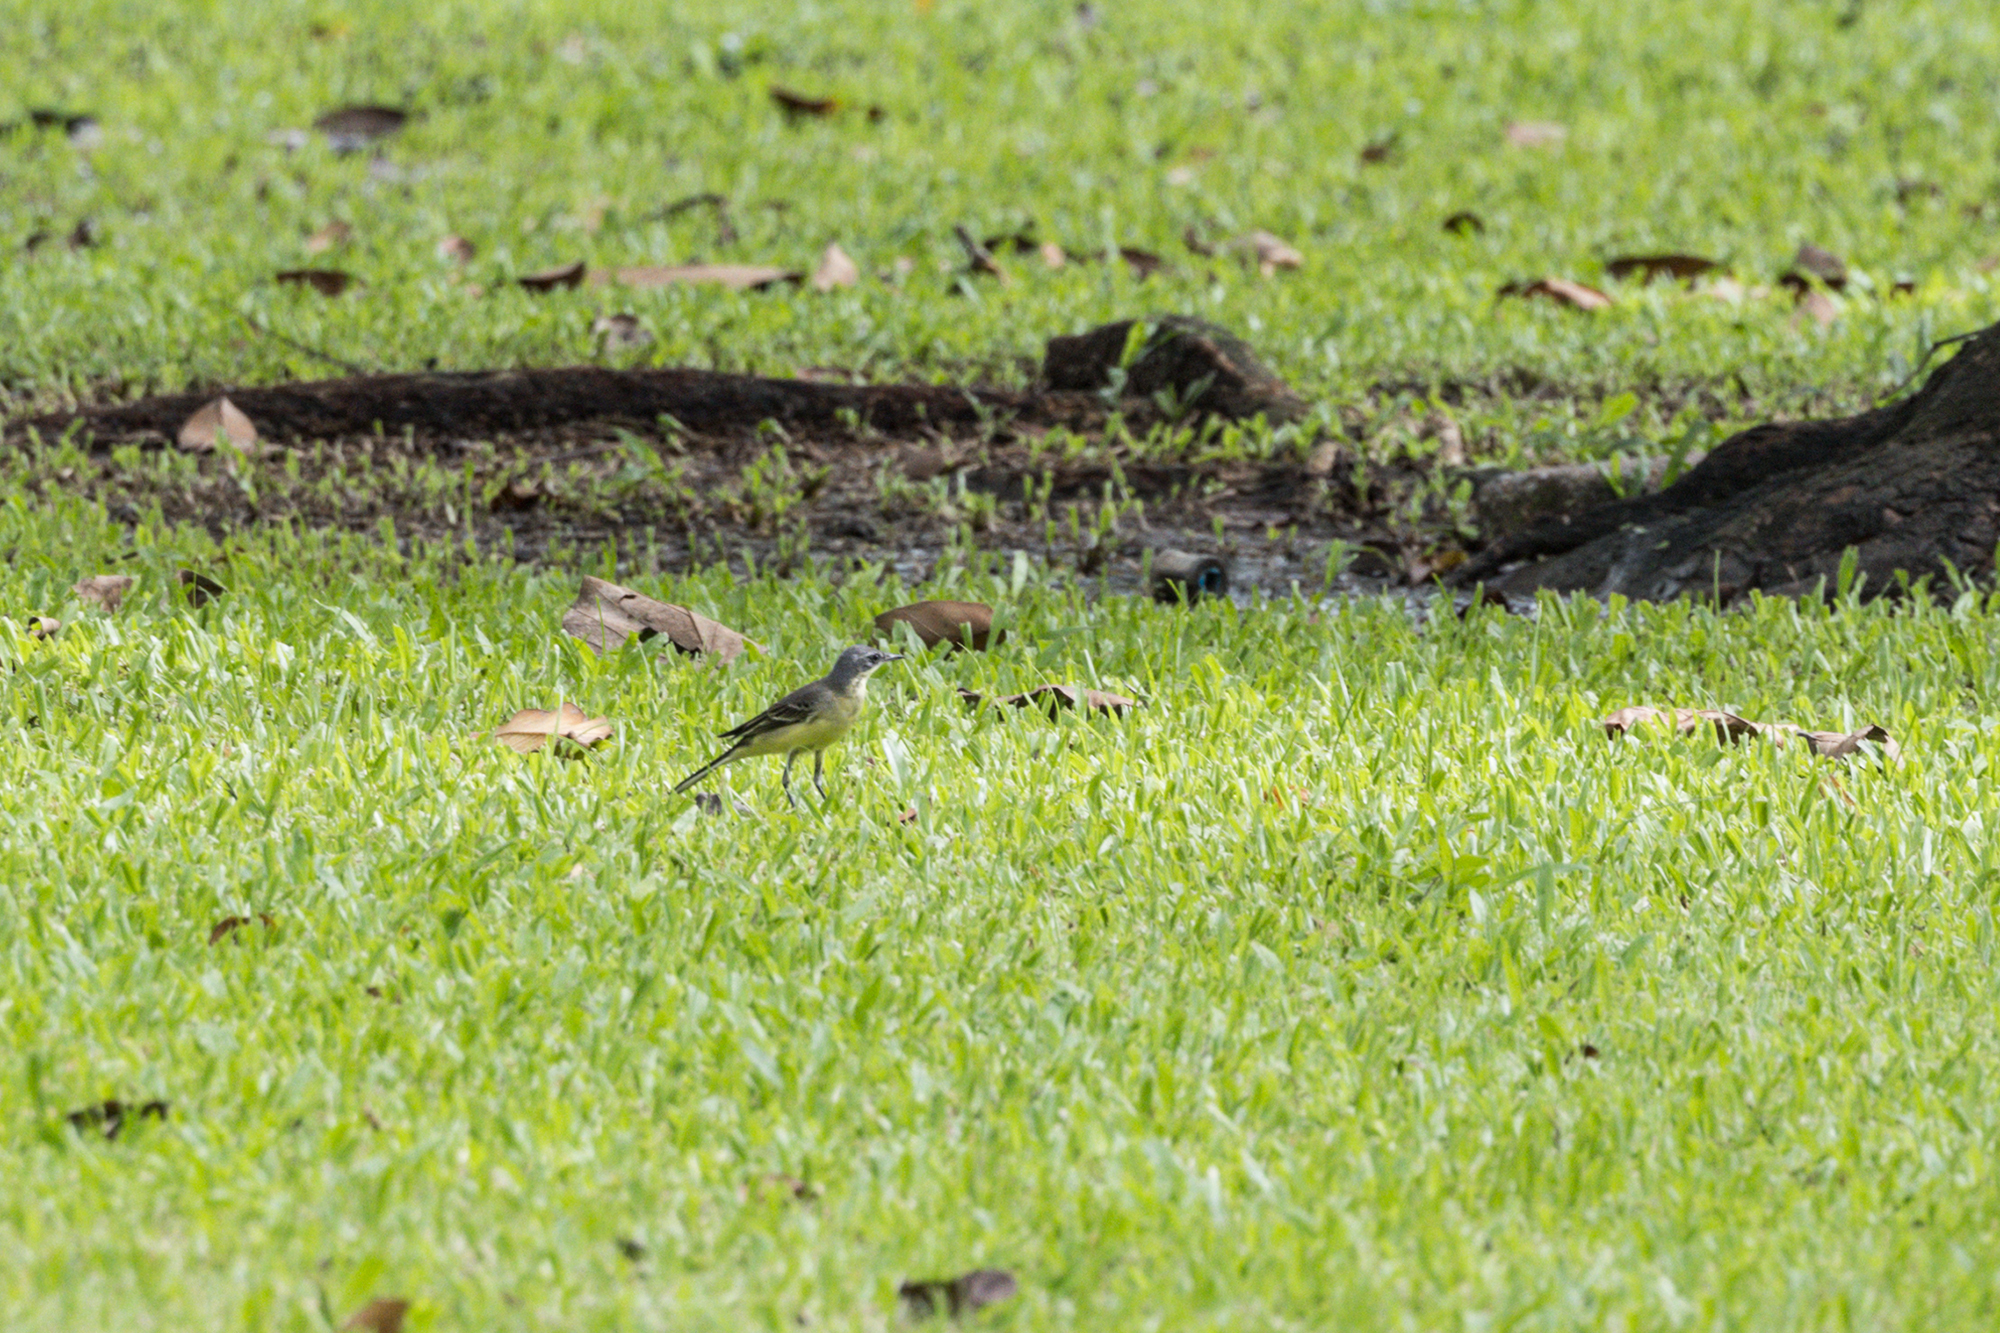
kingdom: Animalia
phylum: Chordata
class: Aves
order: Passeriformes
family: Motacillidae
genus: Motacilla
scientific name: Motacilla tschutschensis
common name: Eastern yellow wagtail
